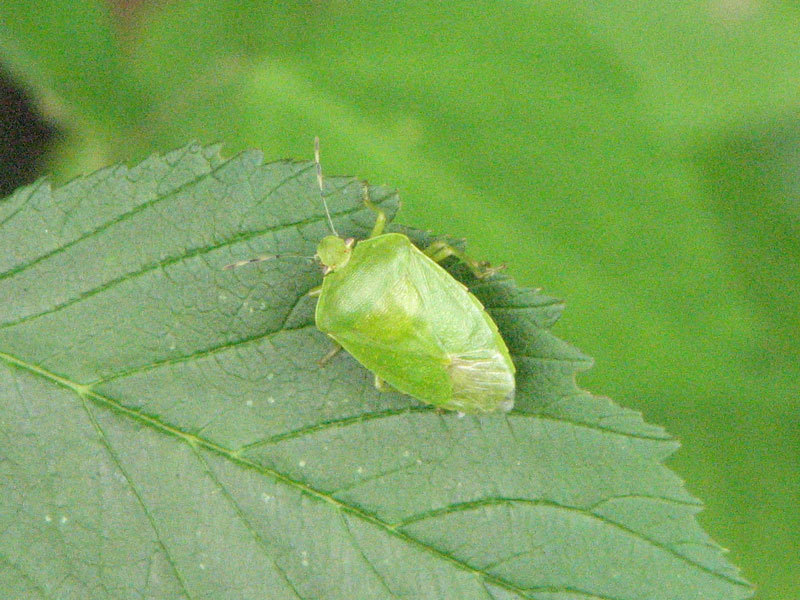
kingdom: Animalia
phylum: Arthropoda
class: Insecta
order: Hemiptera
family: Pentatomidae
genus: Chinavia
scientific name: Chinavia hilaris
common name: Green stink bug
